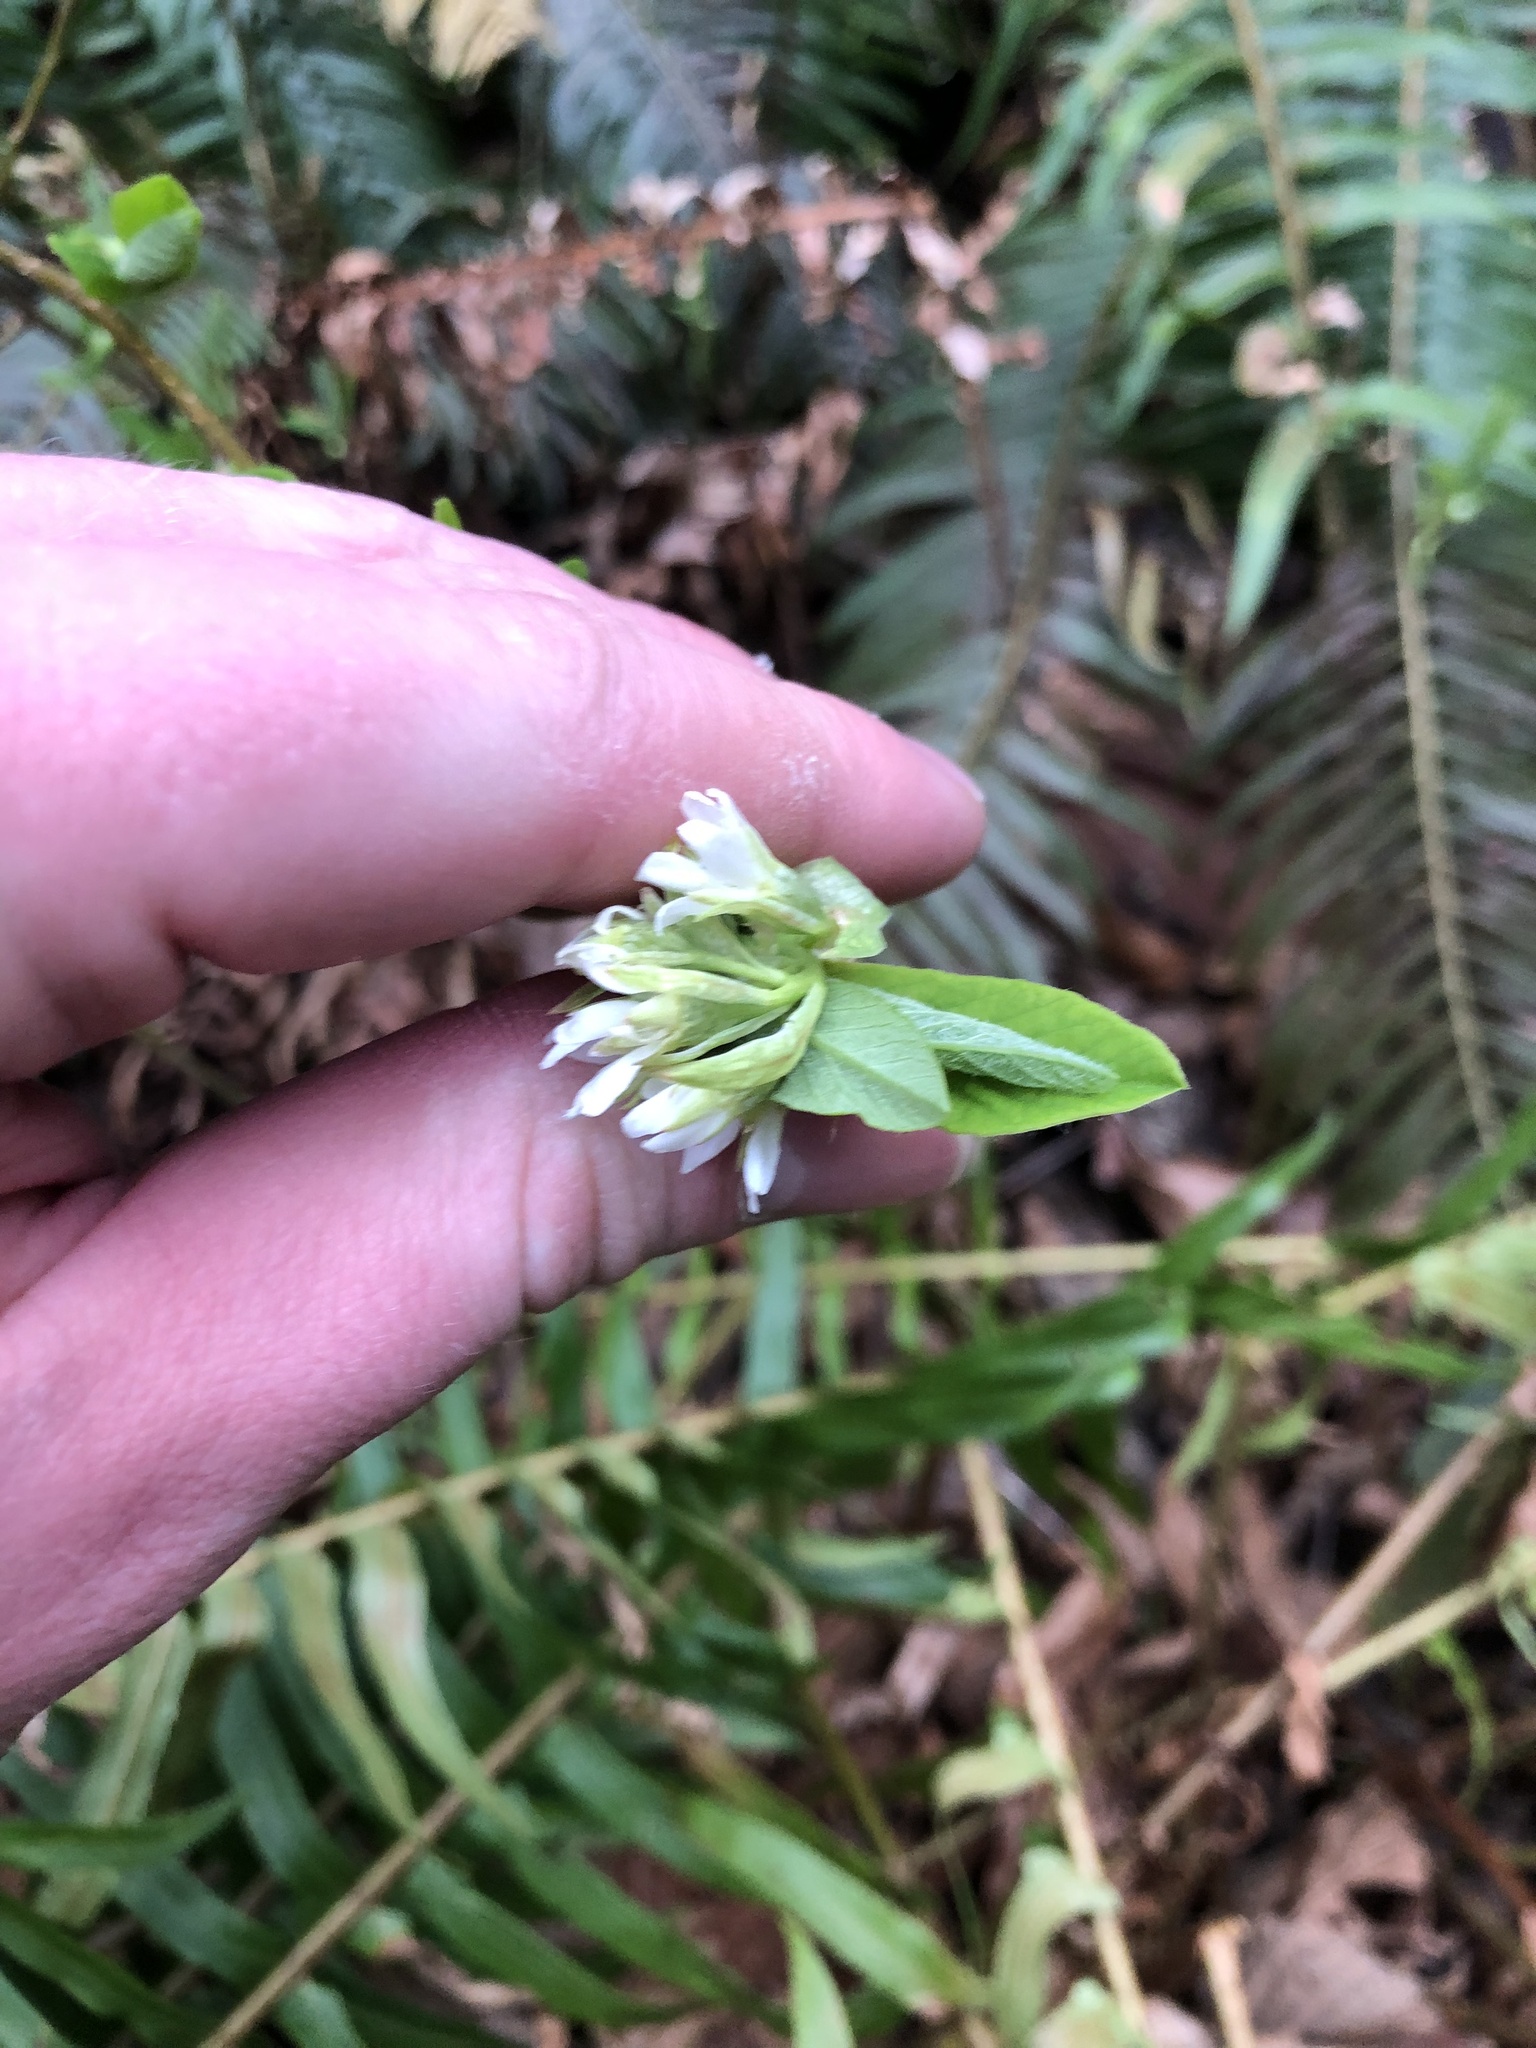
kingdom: Plantae
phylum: Tracheophyta
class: Magnoliopsida
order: Rosales
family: Rosaceae
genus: Oemleria
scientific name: Oemleria cerasiformis
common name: Osoberry
